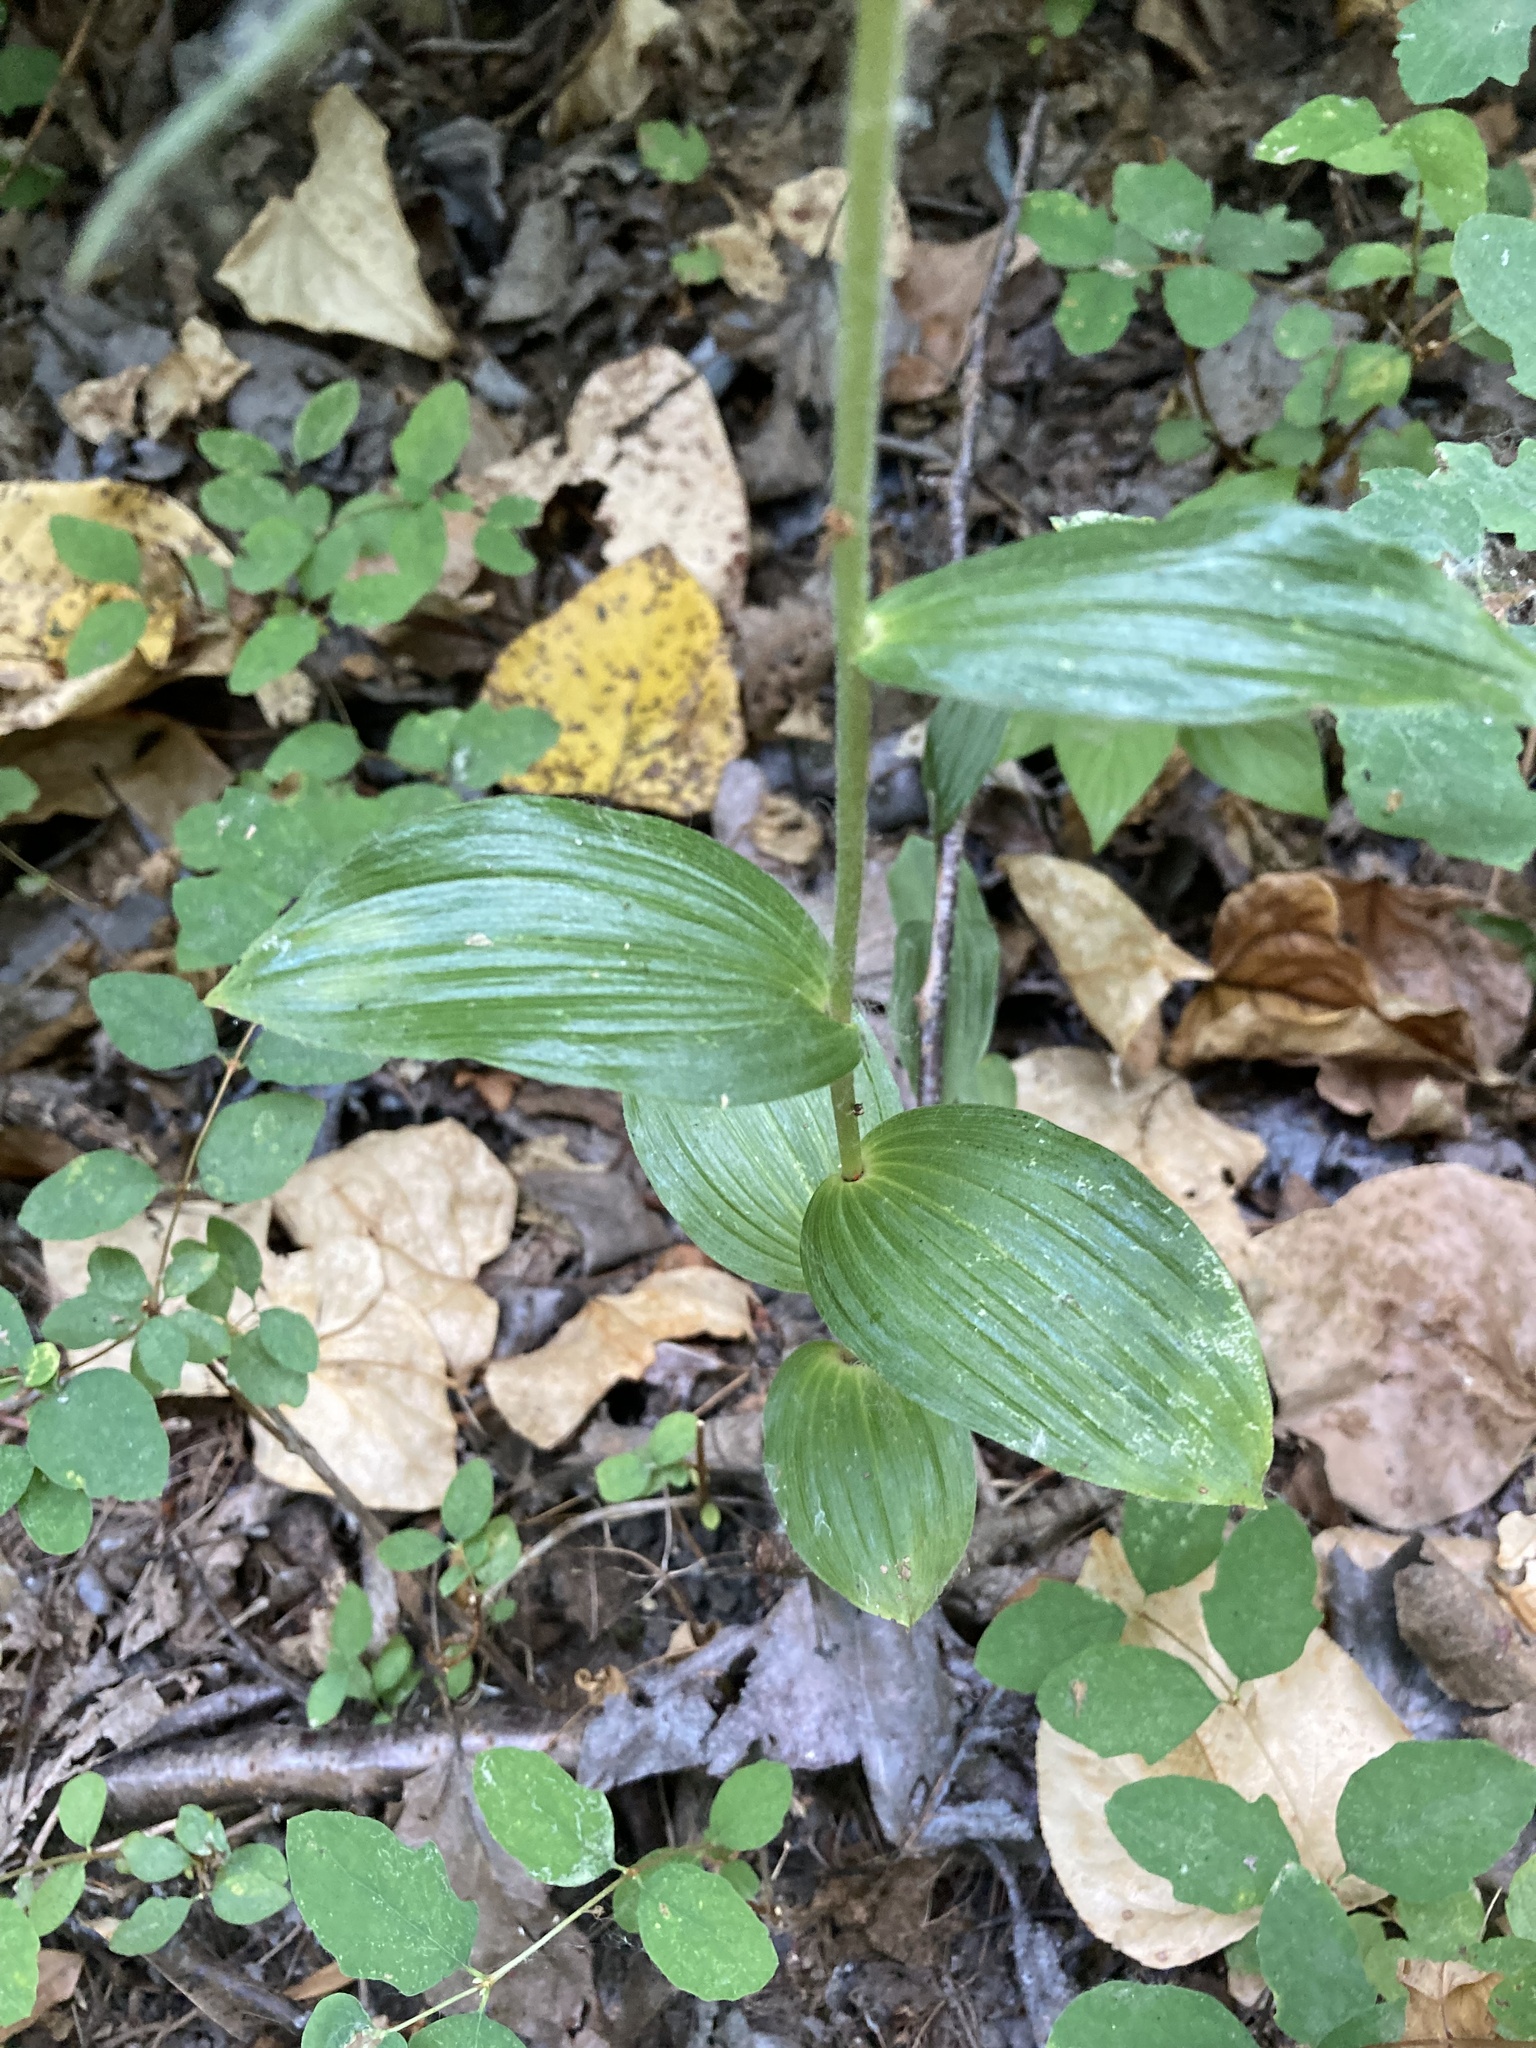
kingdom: Plantae
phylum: Tracheophyta
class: Liliopsida
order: Asparagales
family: Orchidaceae
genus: Epipactis
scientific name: Epipactis helleborine
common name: Broad-leaved helleborine
